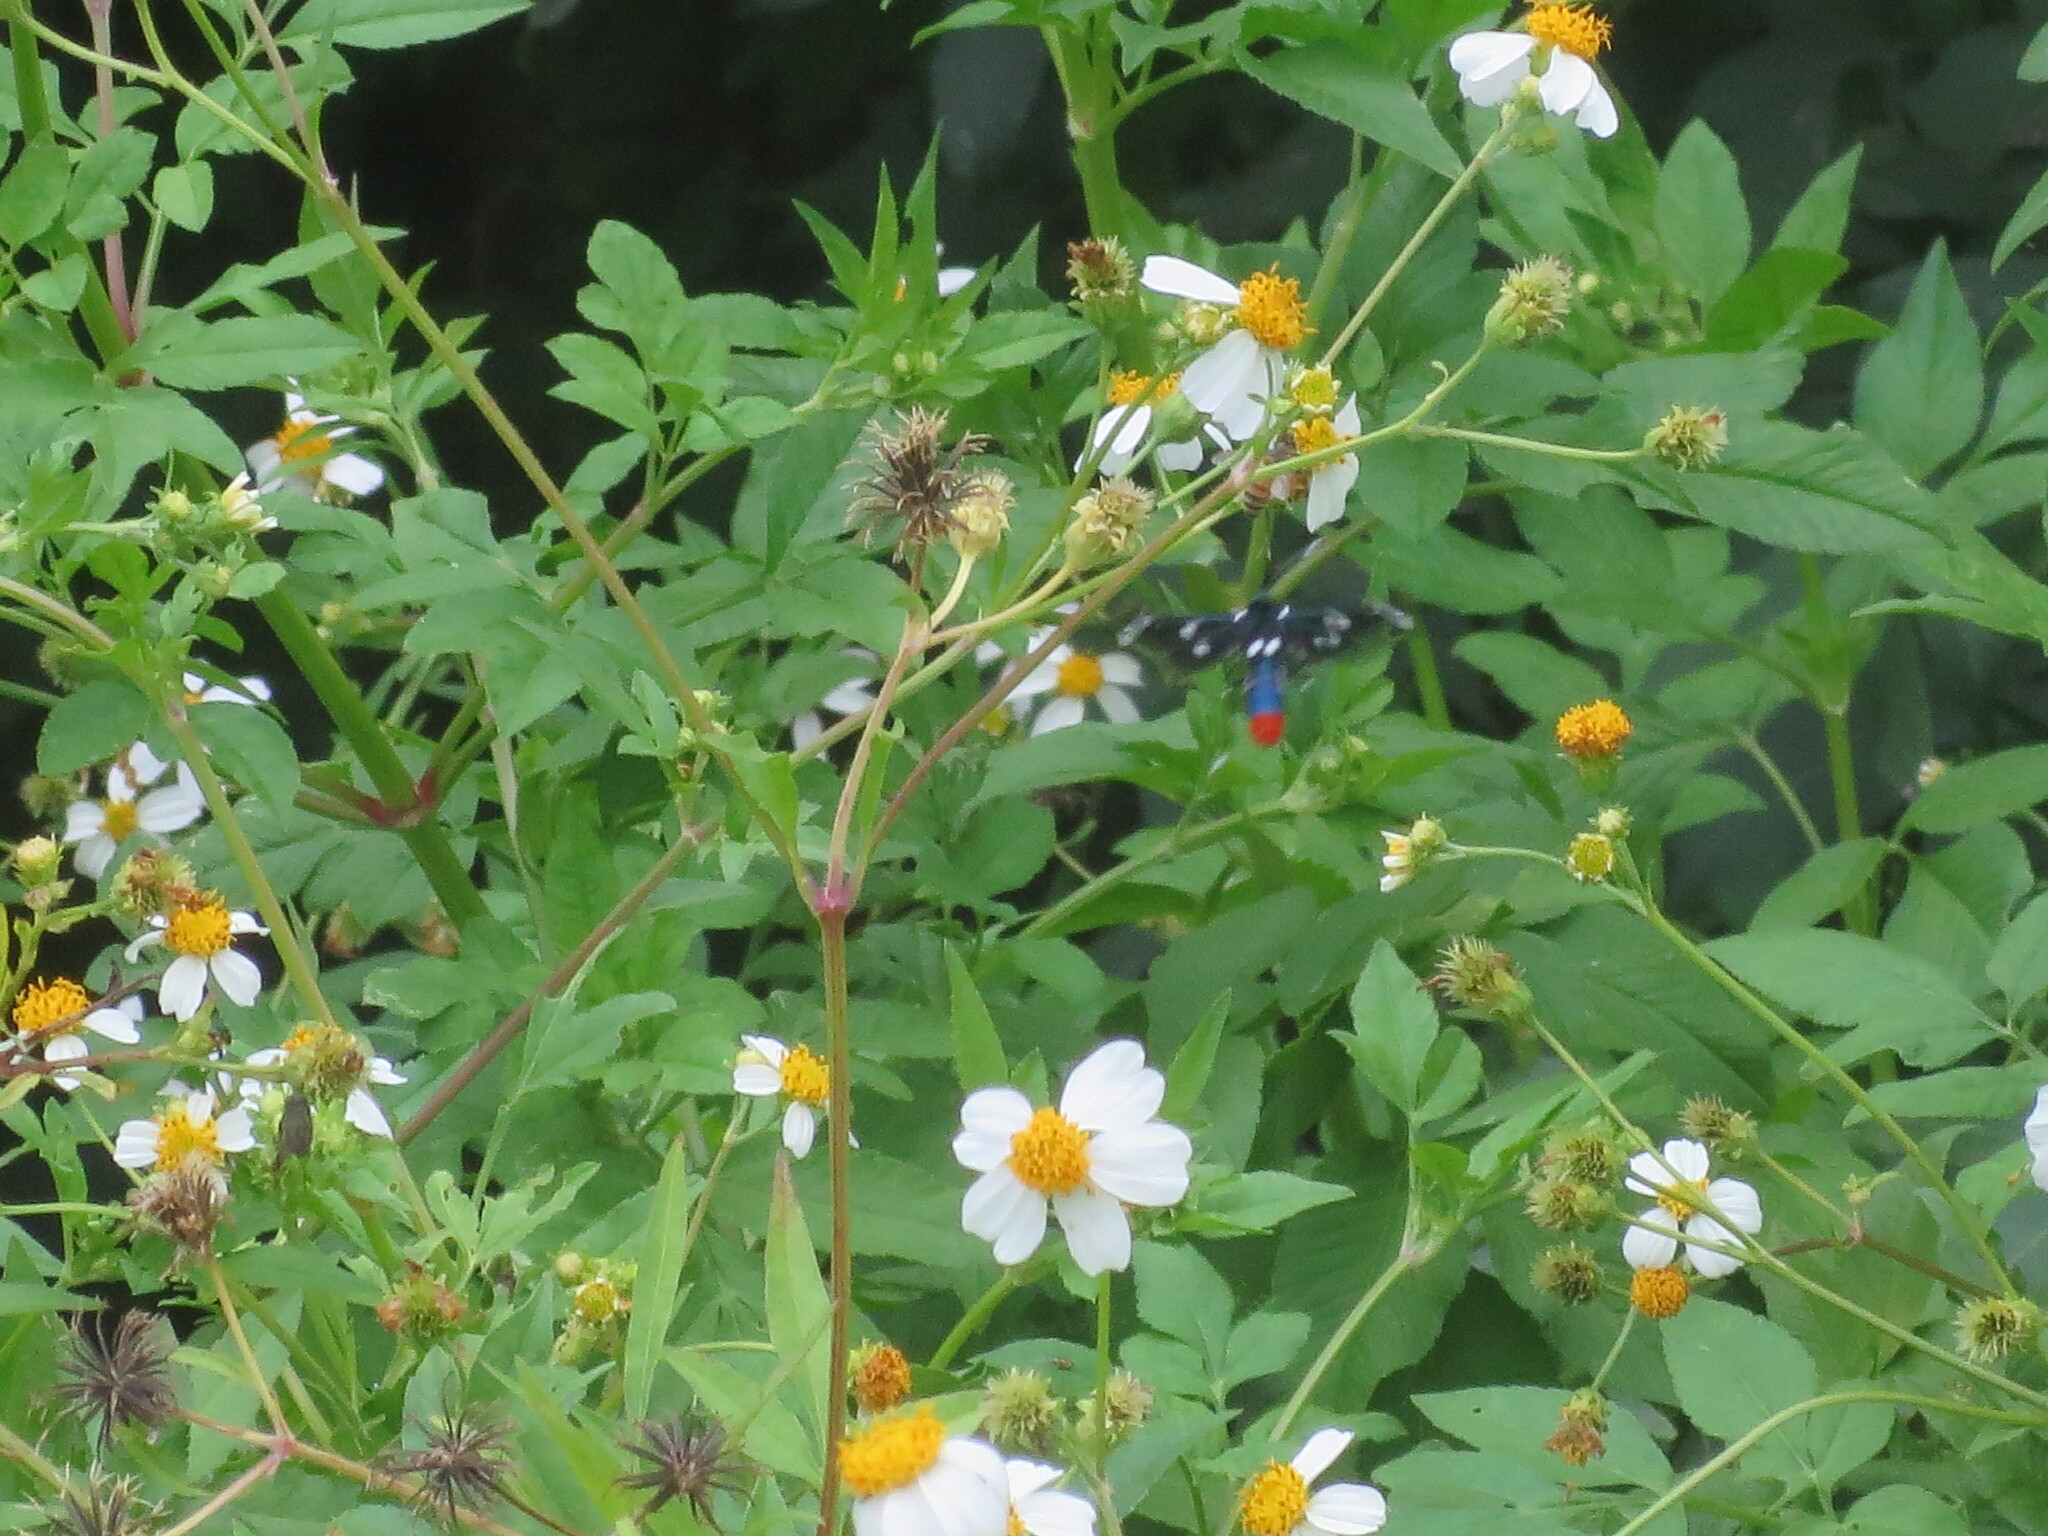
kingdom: Animalia
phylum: Arthropoda
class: Insecta
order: Lepidoptera
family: Erebidae
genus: Syntomeida
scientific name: Syntomeida epilais
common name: Polka-dot wasp moth
